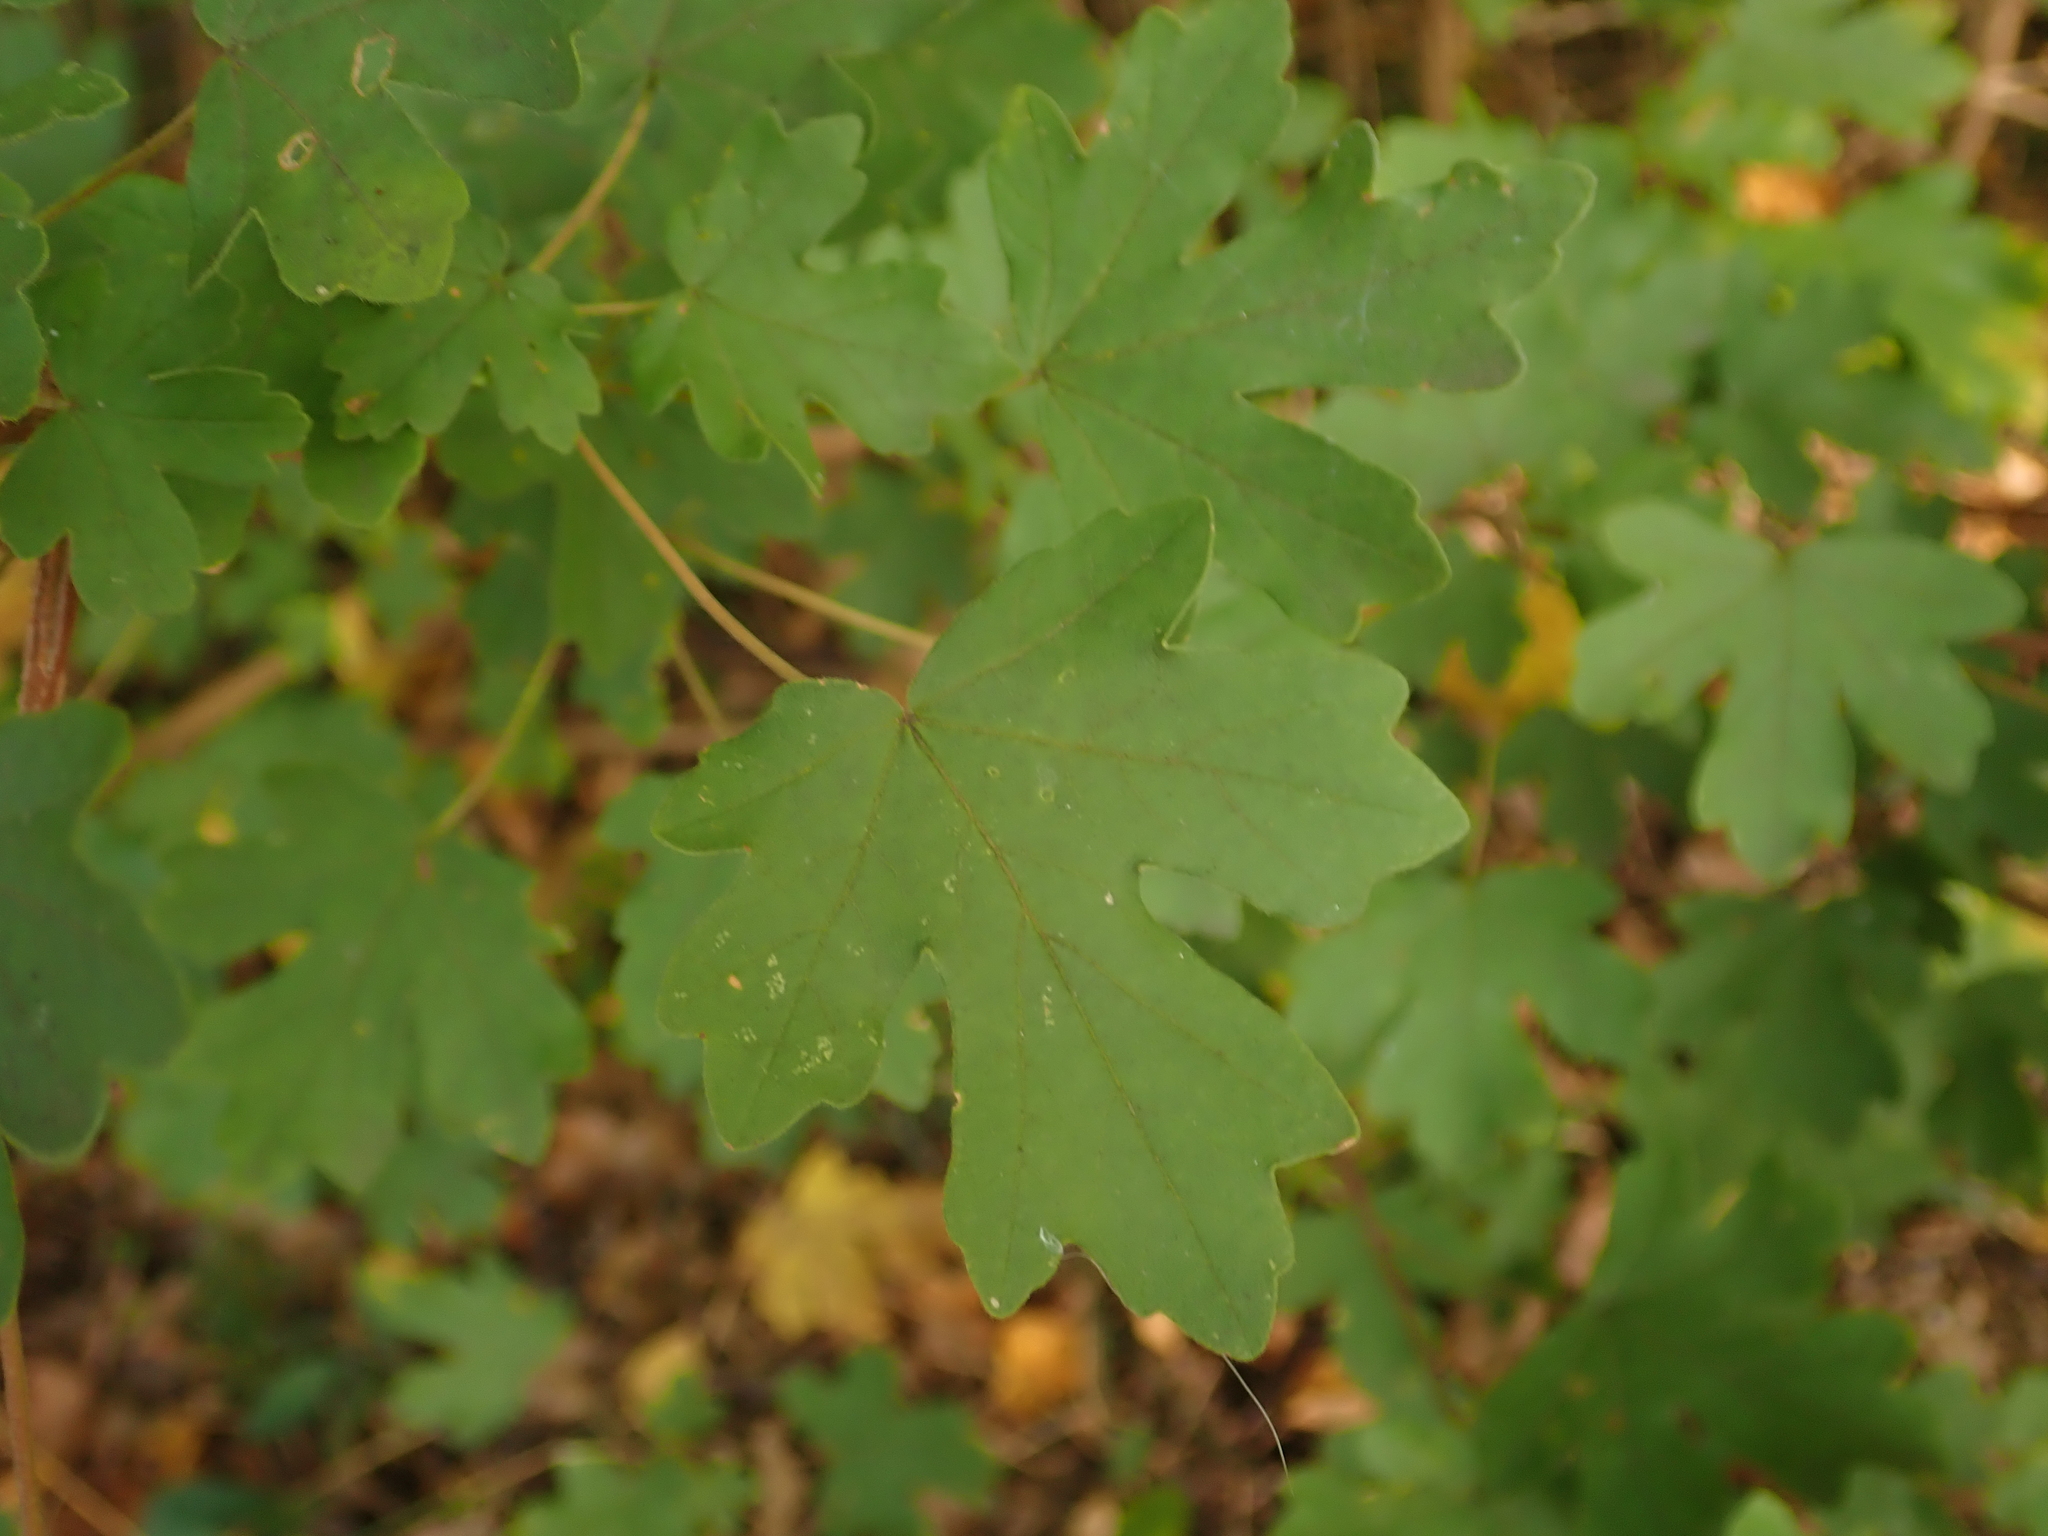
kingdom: Plantae
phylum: Tracheophyta
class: Magnoliopsida
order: Sapindales
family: Sapindaceae
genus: Acer
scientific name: Acer campestre
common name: Field maple
